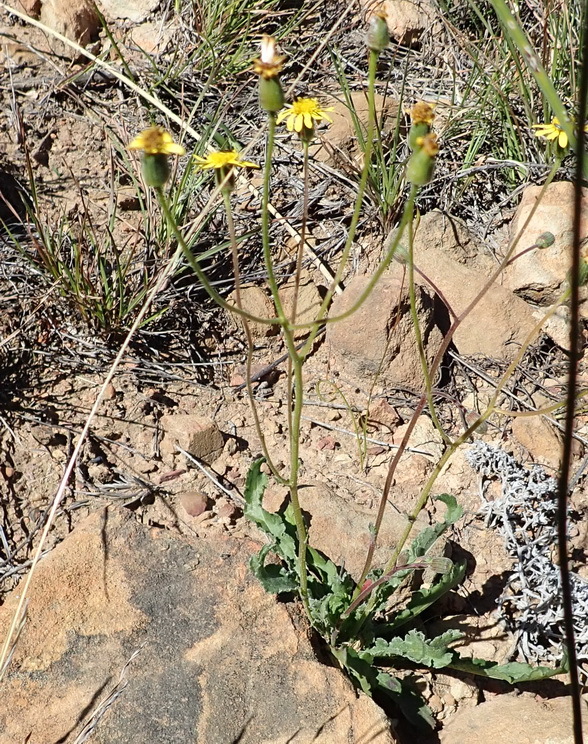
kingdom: Plantae
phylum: Tracheophyta
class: Magnoliopsida
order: Asterales
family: Asteraceae
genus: Senecio
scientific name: Senecio hastatus
